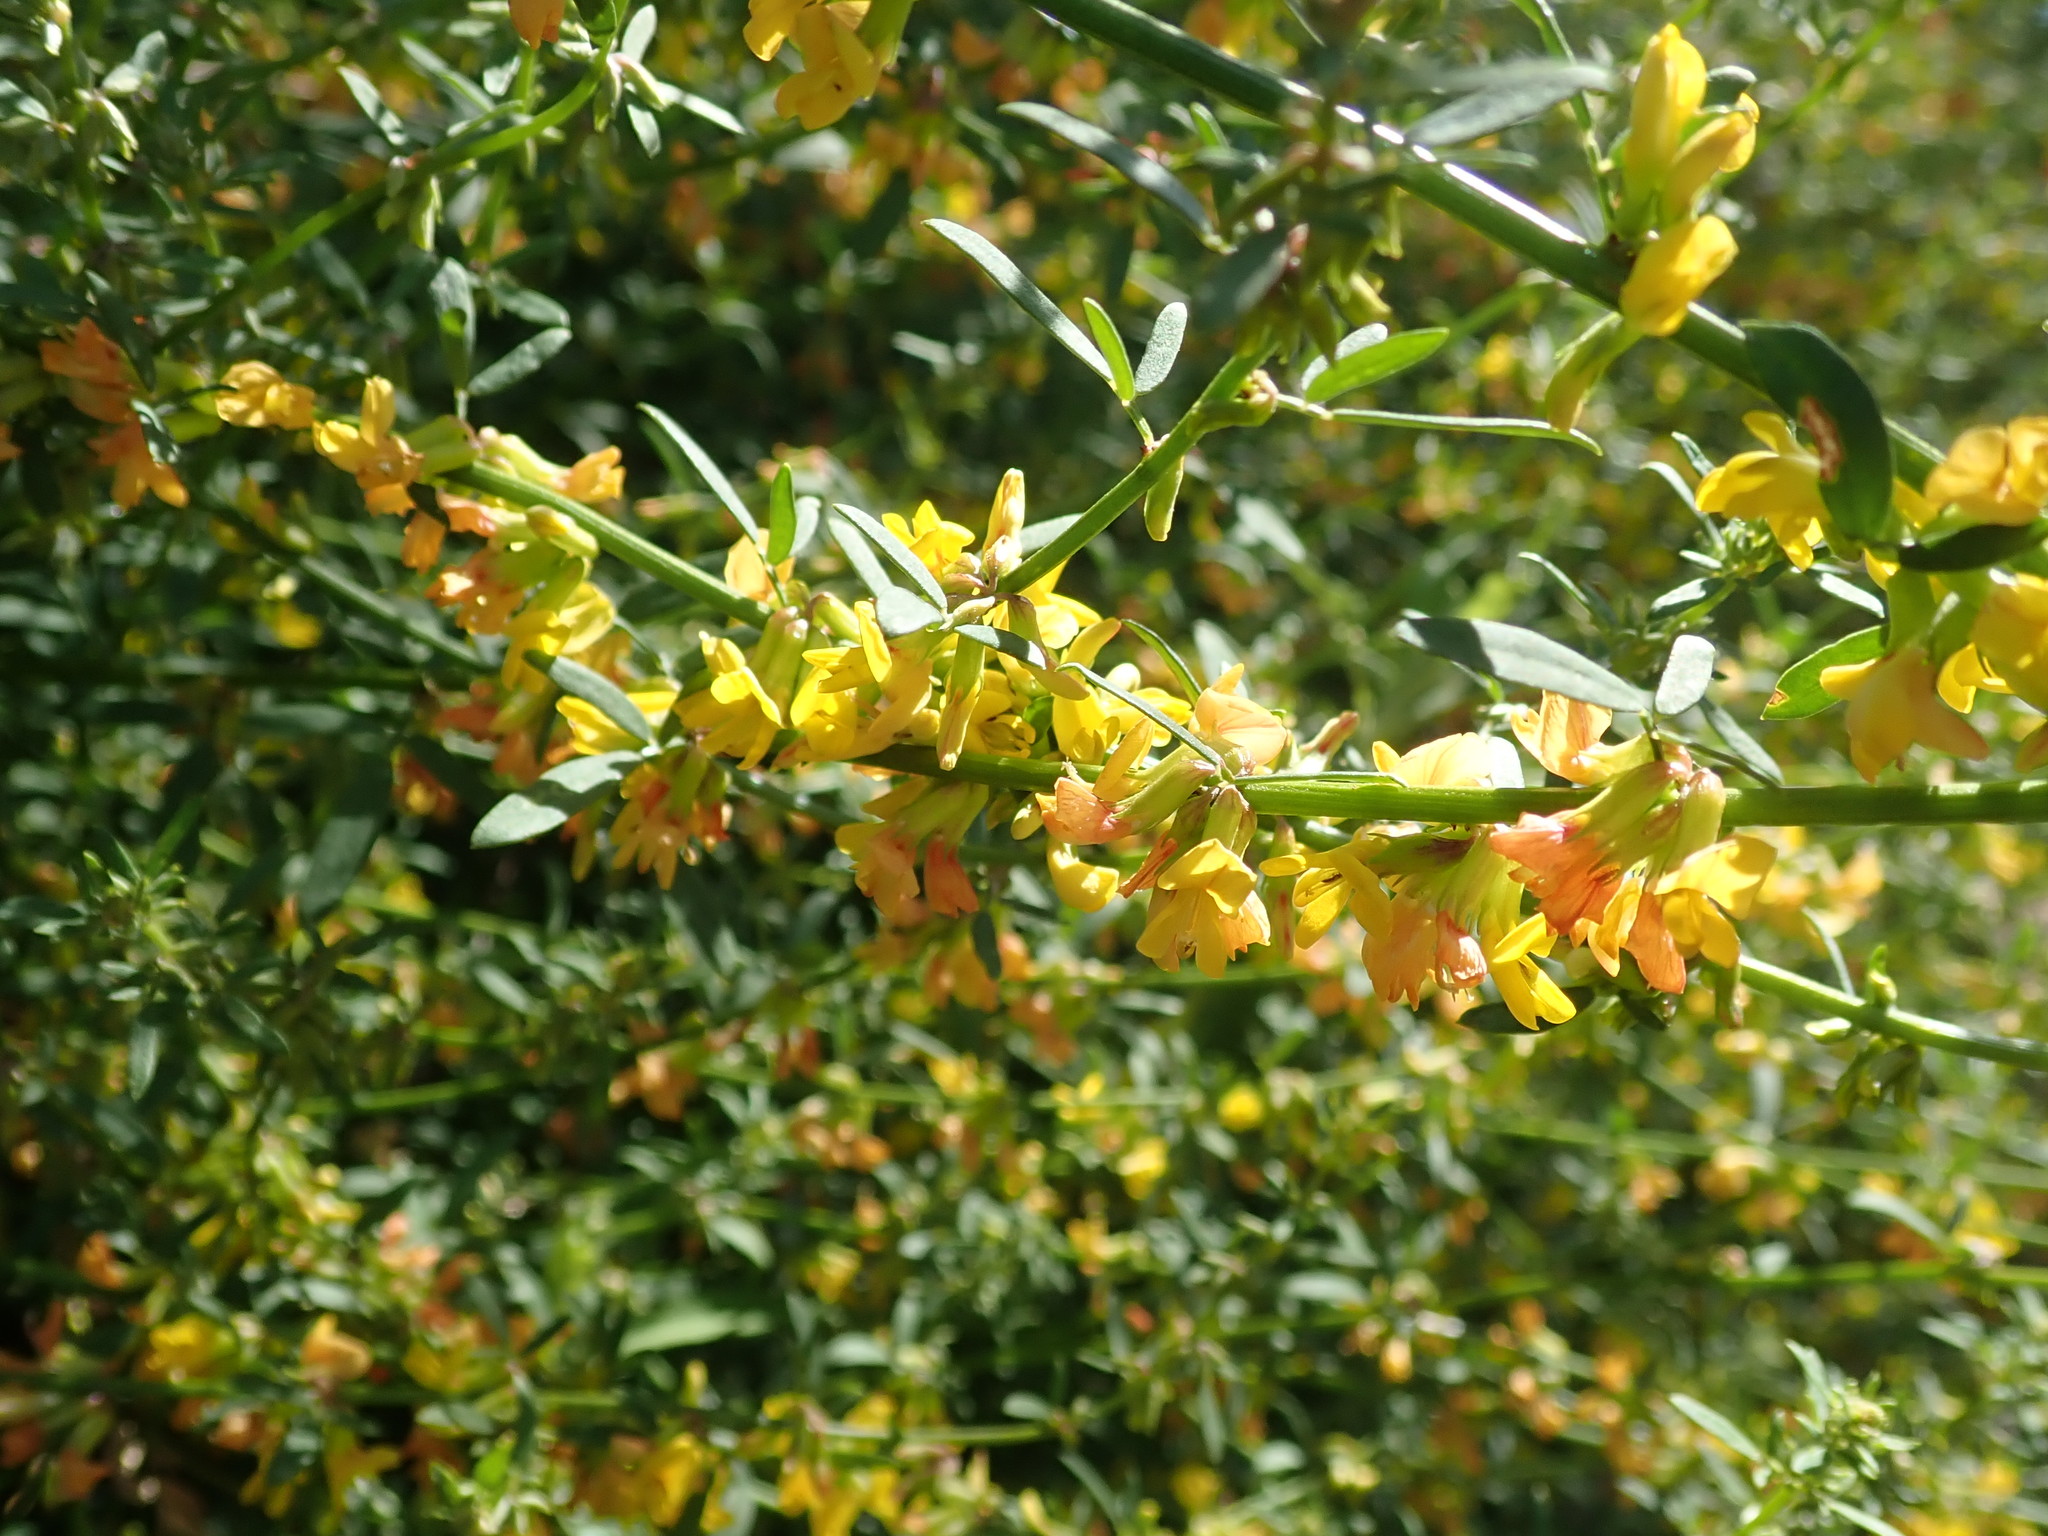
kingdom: Plantae
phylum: Tracheophyta
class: Magnoliopsida
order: Fabales
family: Fabaceae
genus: Acmispon
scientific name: Acmispon glaber
